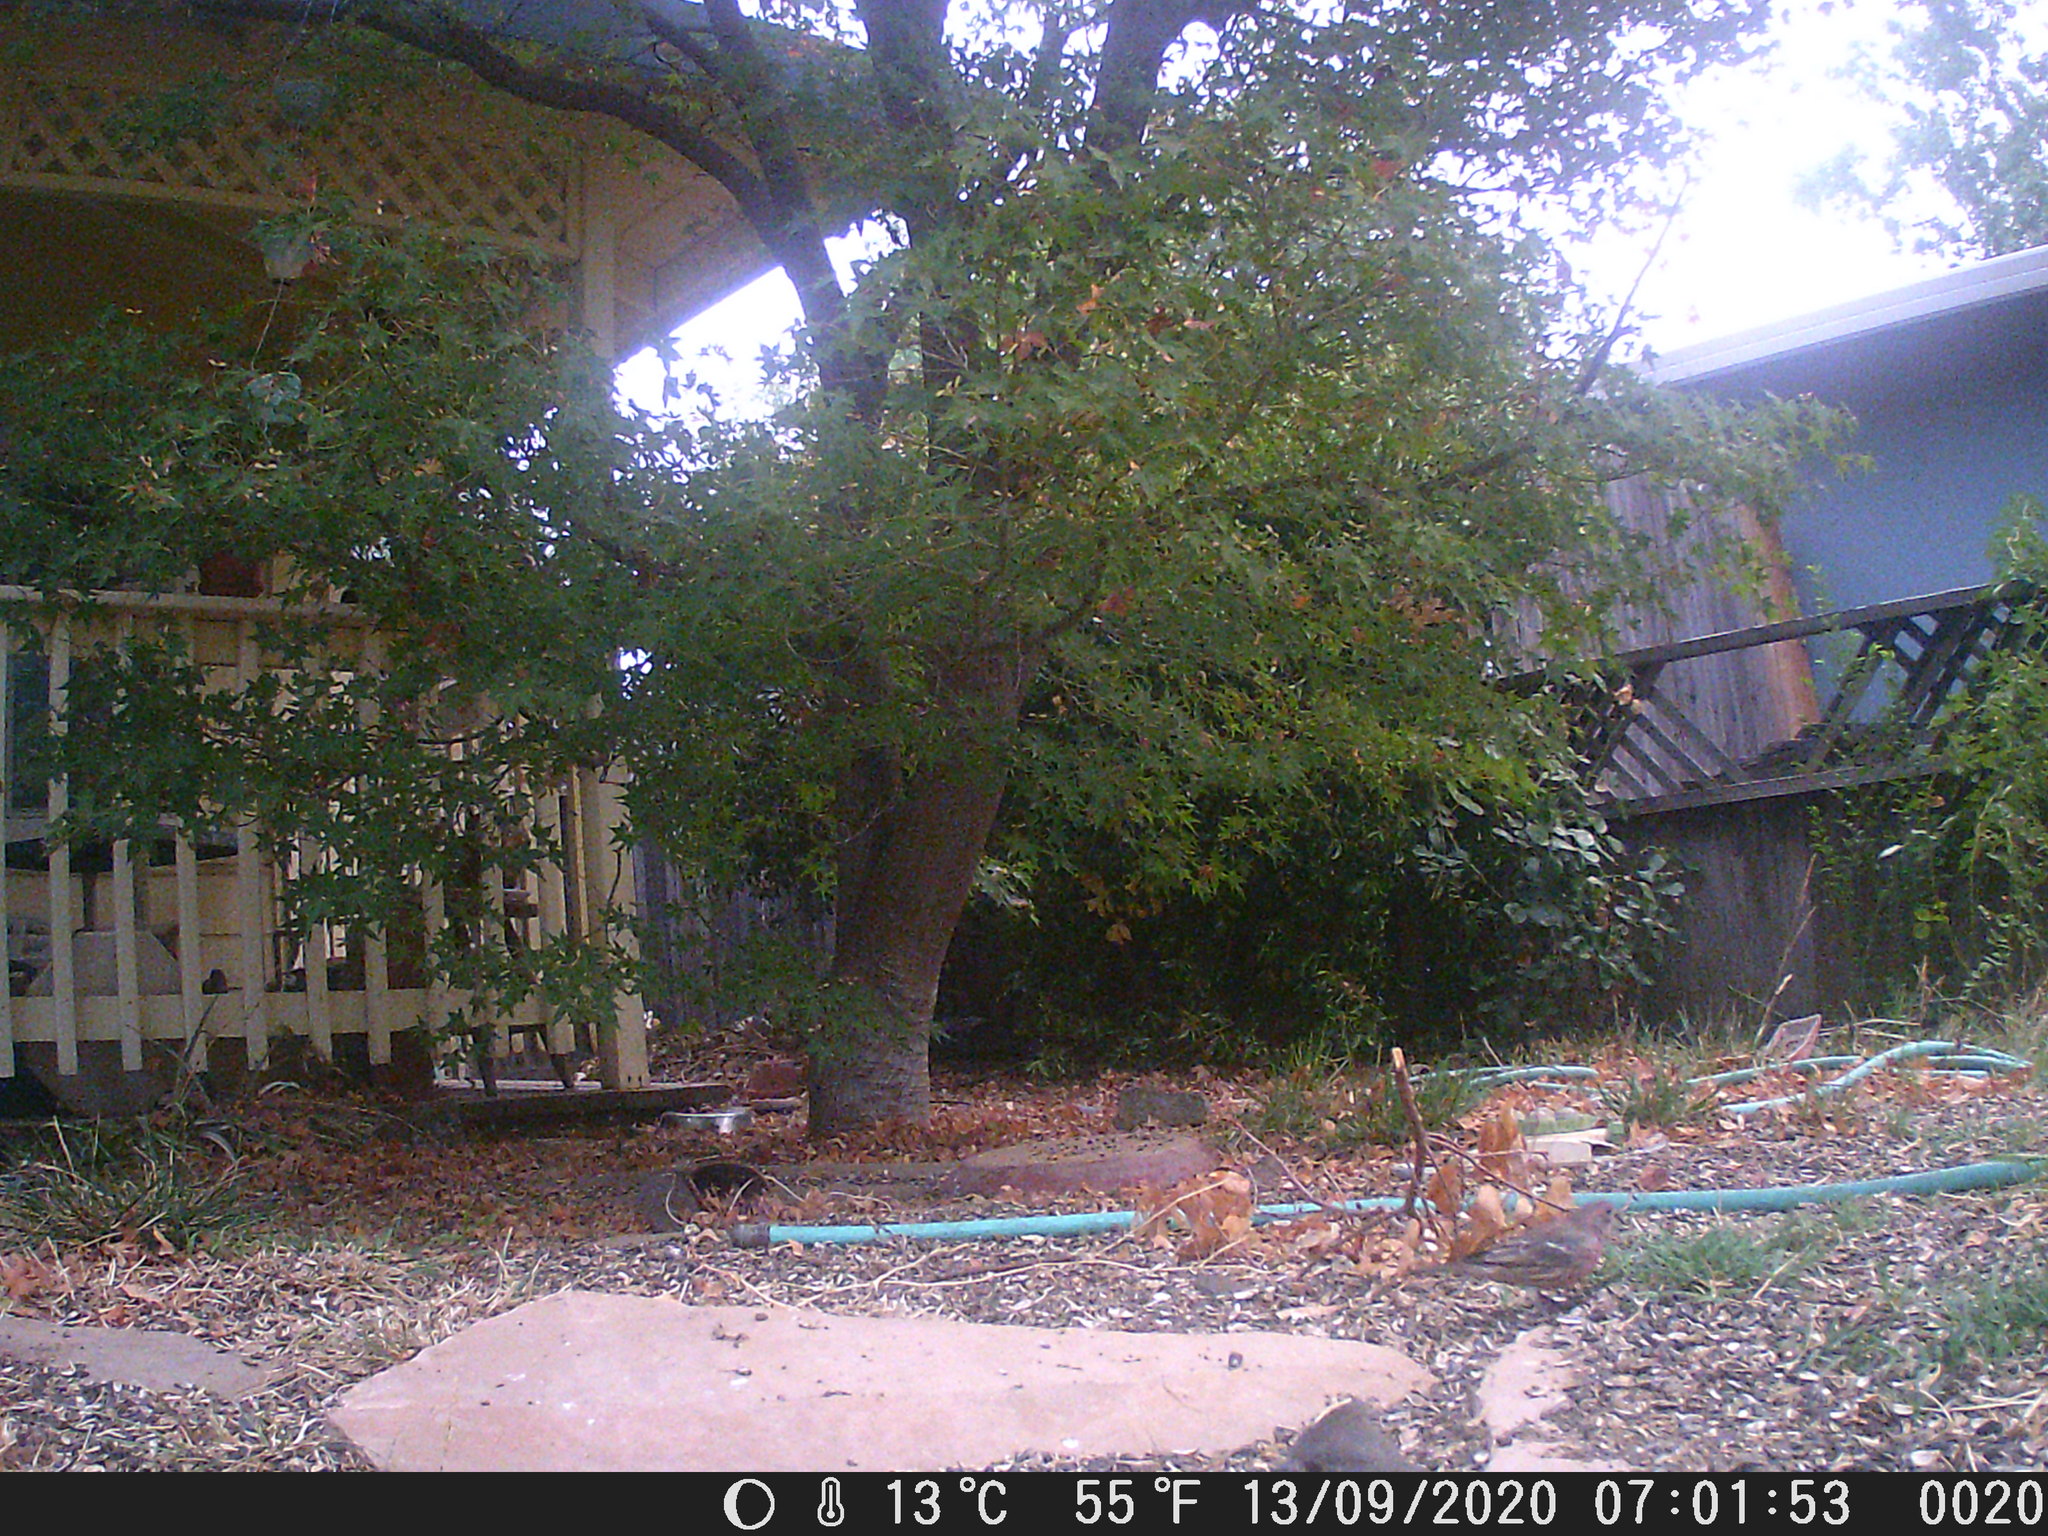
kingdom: Animalia
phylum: Chordata
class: Aves
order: Passeriformes
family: Fringillidae
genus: Haemorhous
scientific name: Haemorhous mexicanus
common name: House finch
